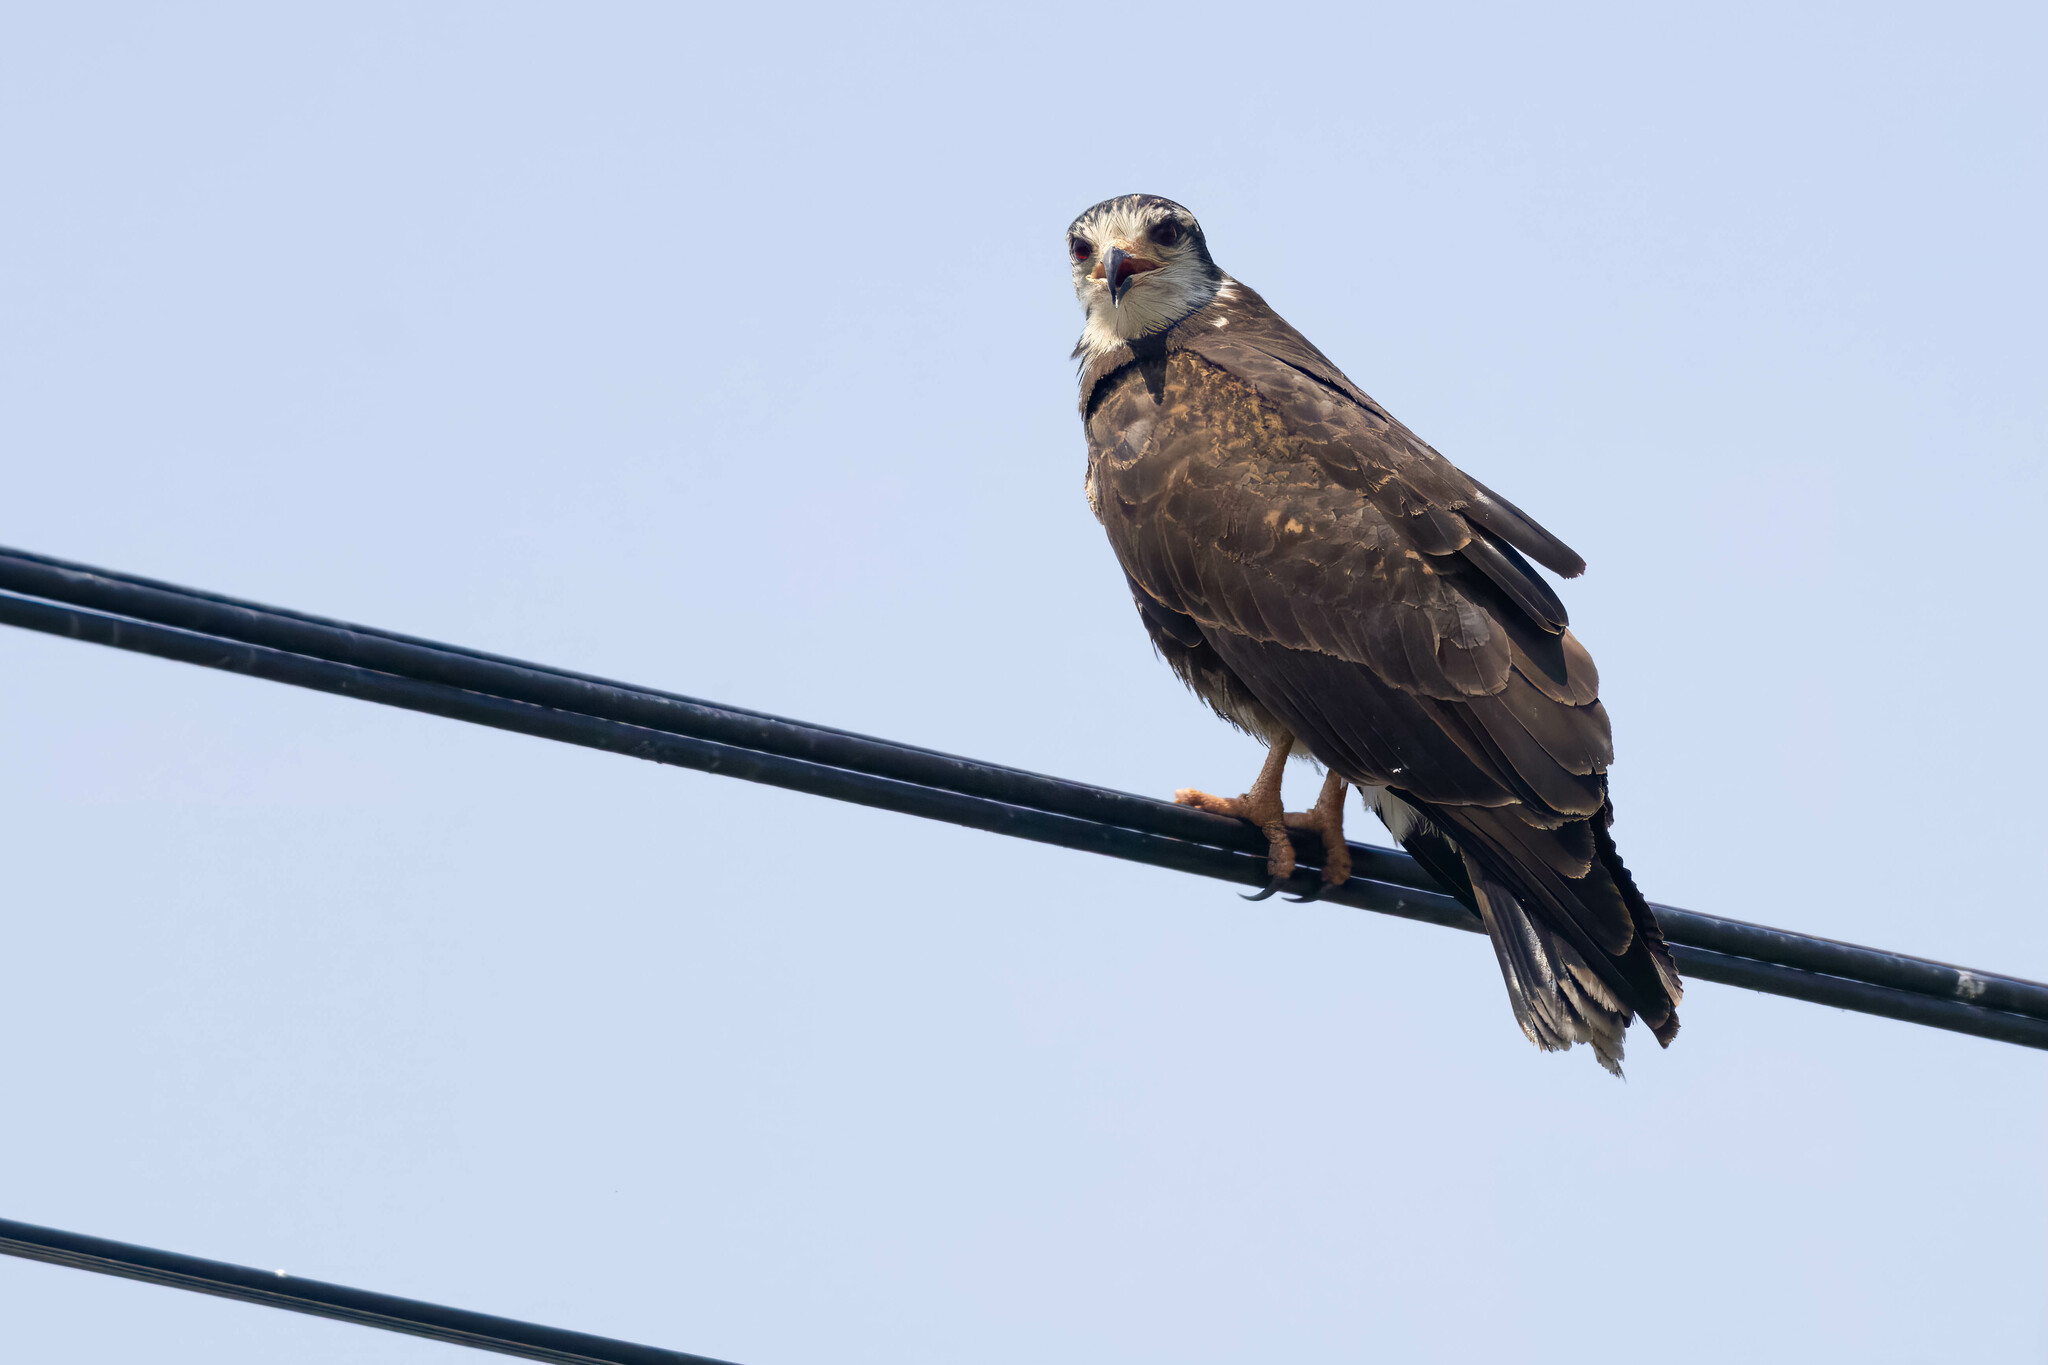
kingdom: Animalia
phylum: Chordata
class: Aves
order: Accipitriformes
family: Accipitridae
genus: Rostrhamus
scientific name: Rostrhamus sociabilis
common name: Snail kite
